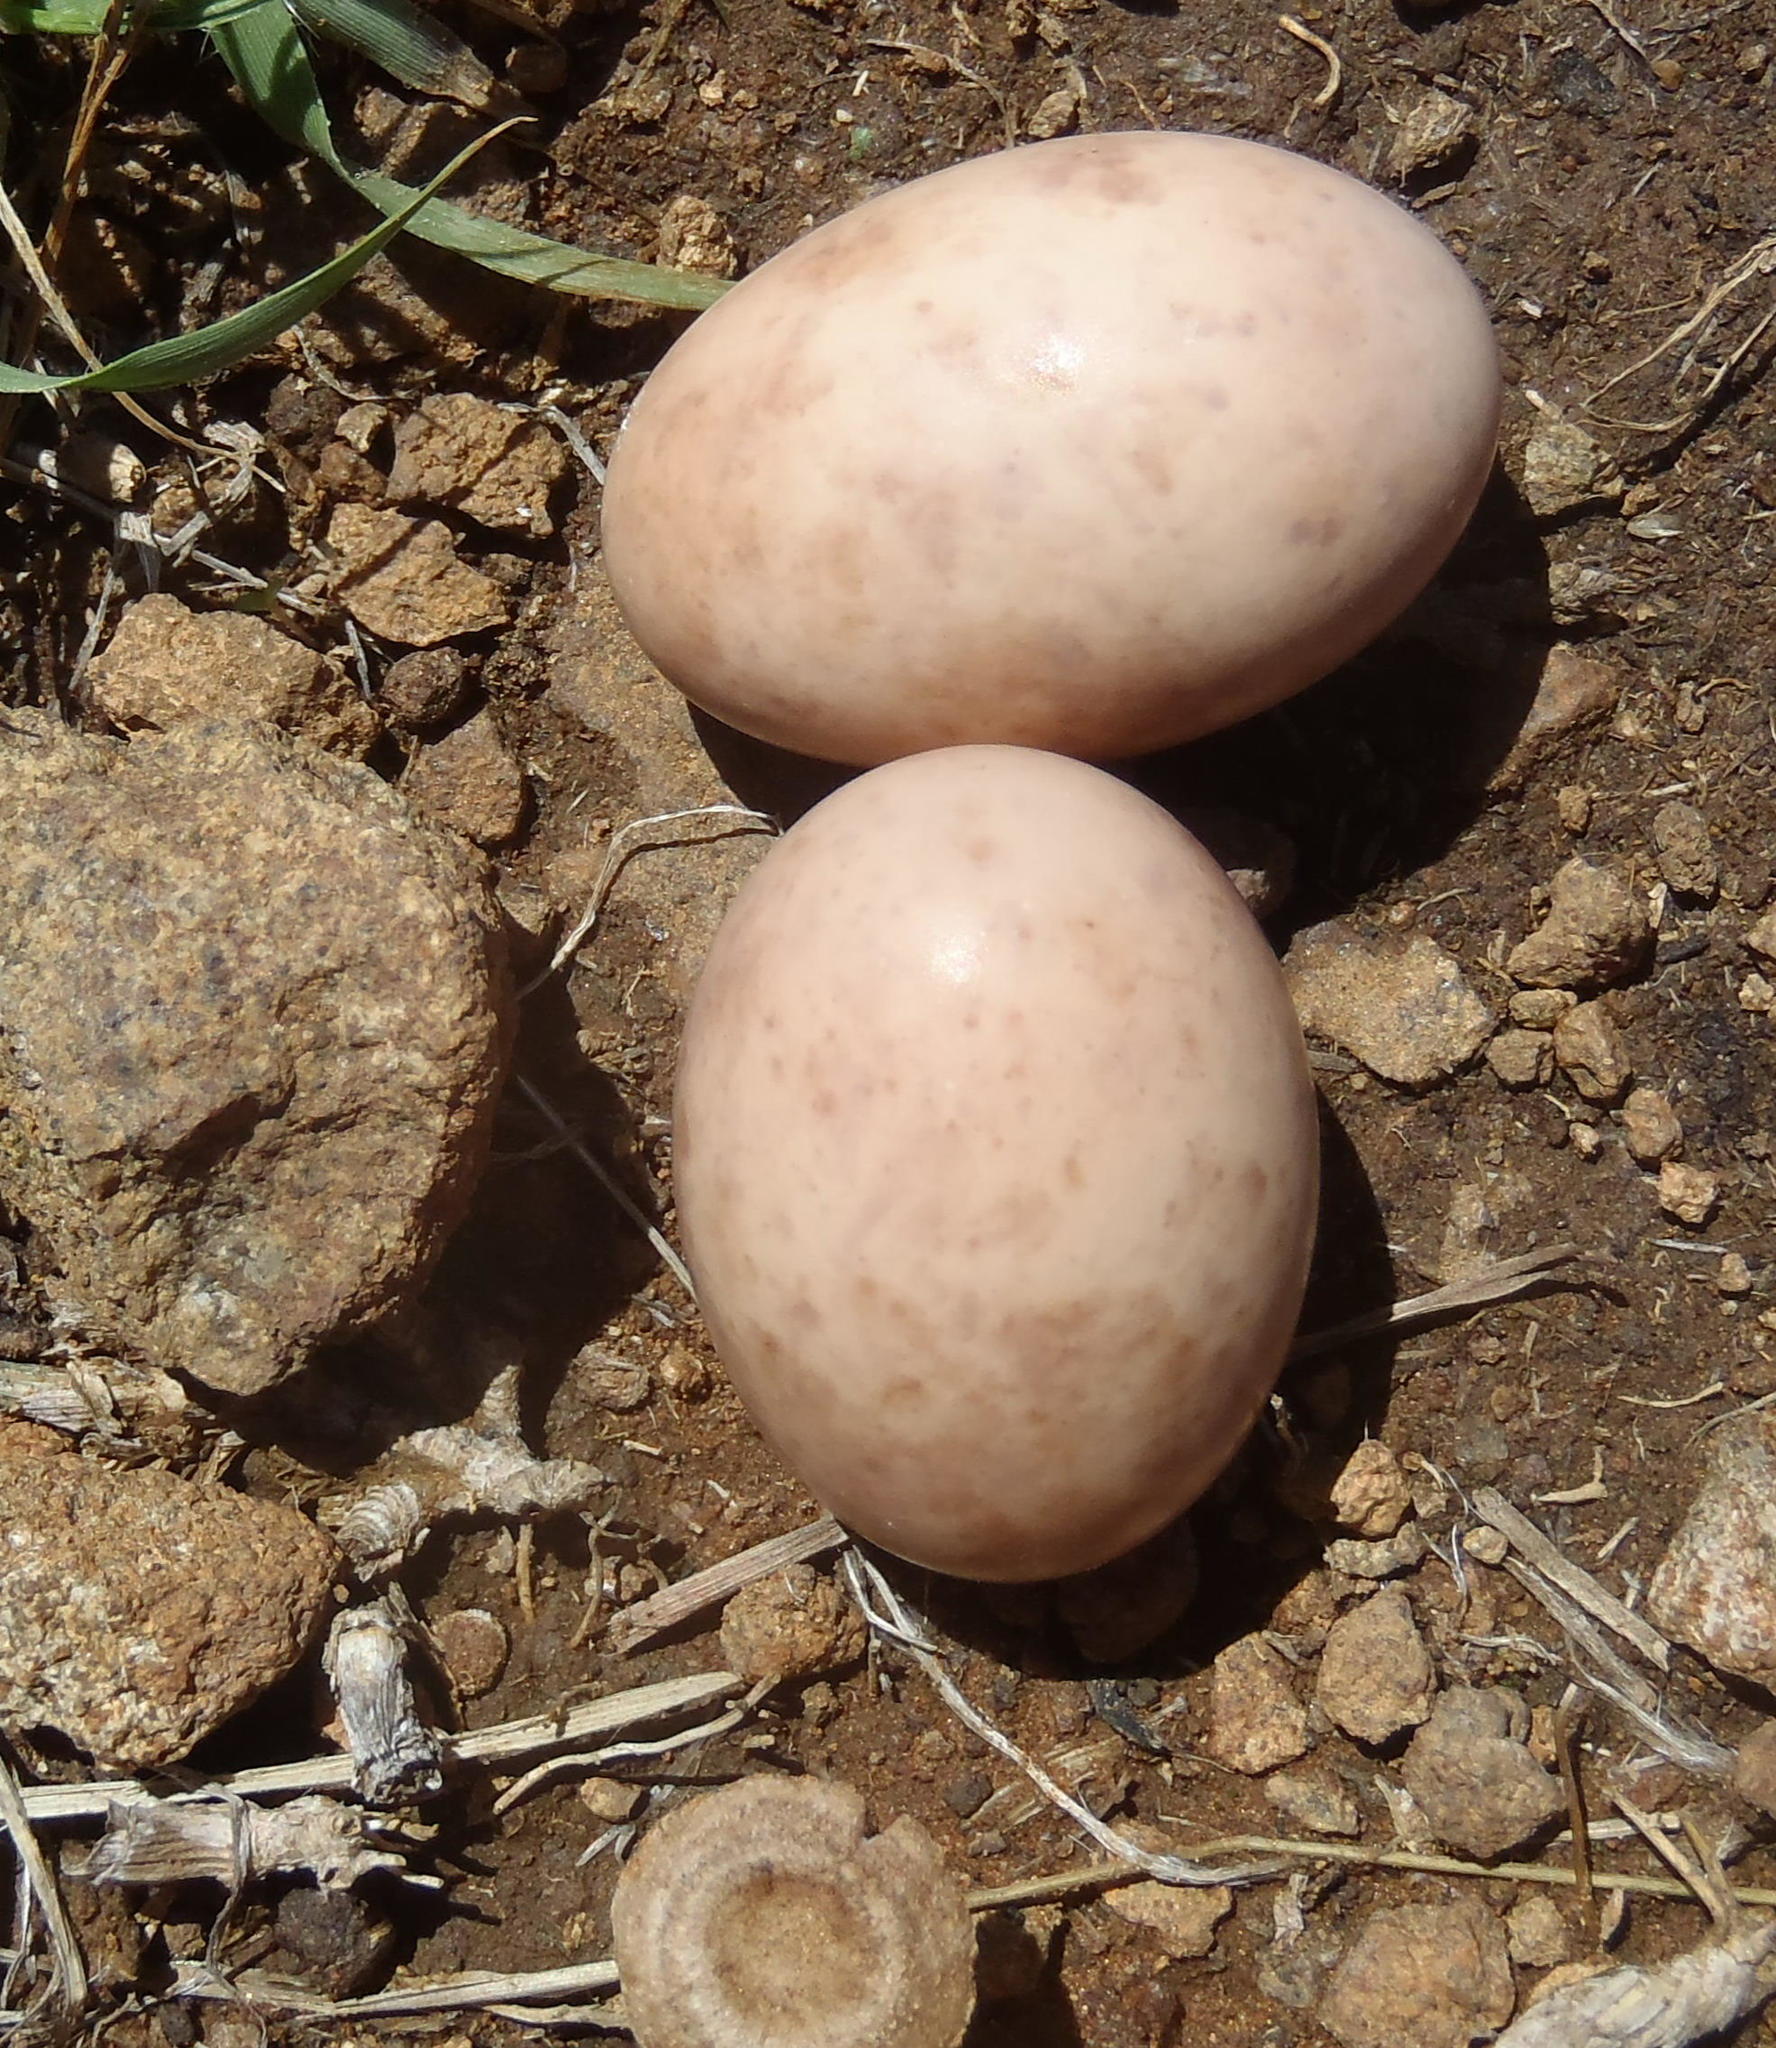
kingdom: Animalia
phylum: Chordata
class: Aves
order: Caprimulgiformes
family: Caprimulgidae
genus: Caprimulgus
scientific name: Caprimulgus rufigena
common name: Rufous-cheeked nightjar
